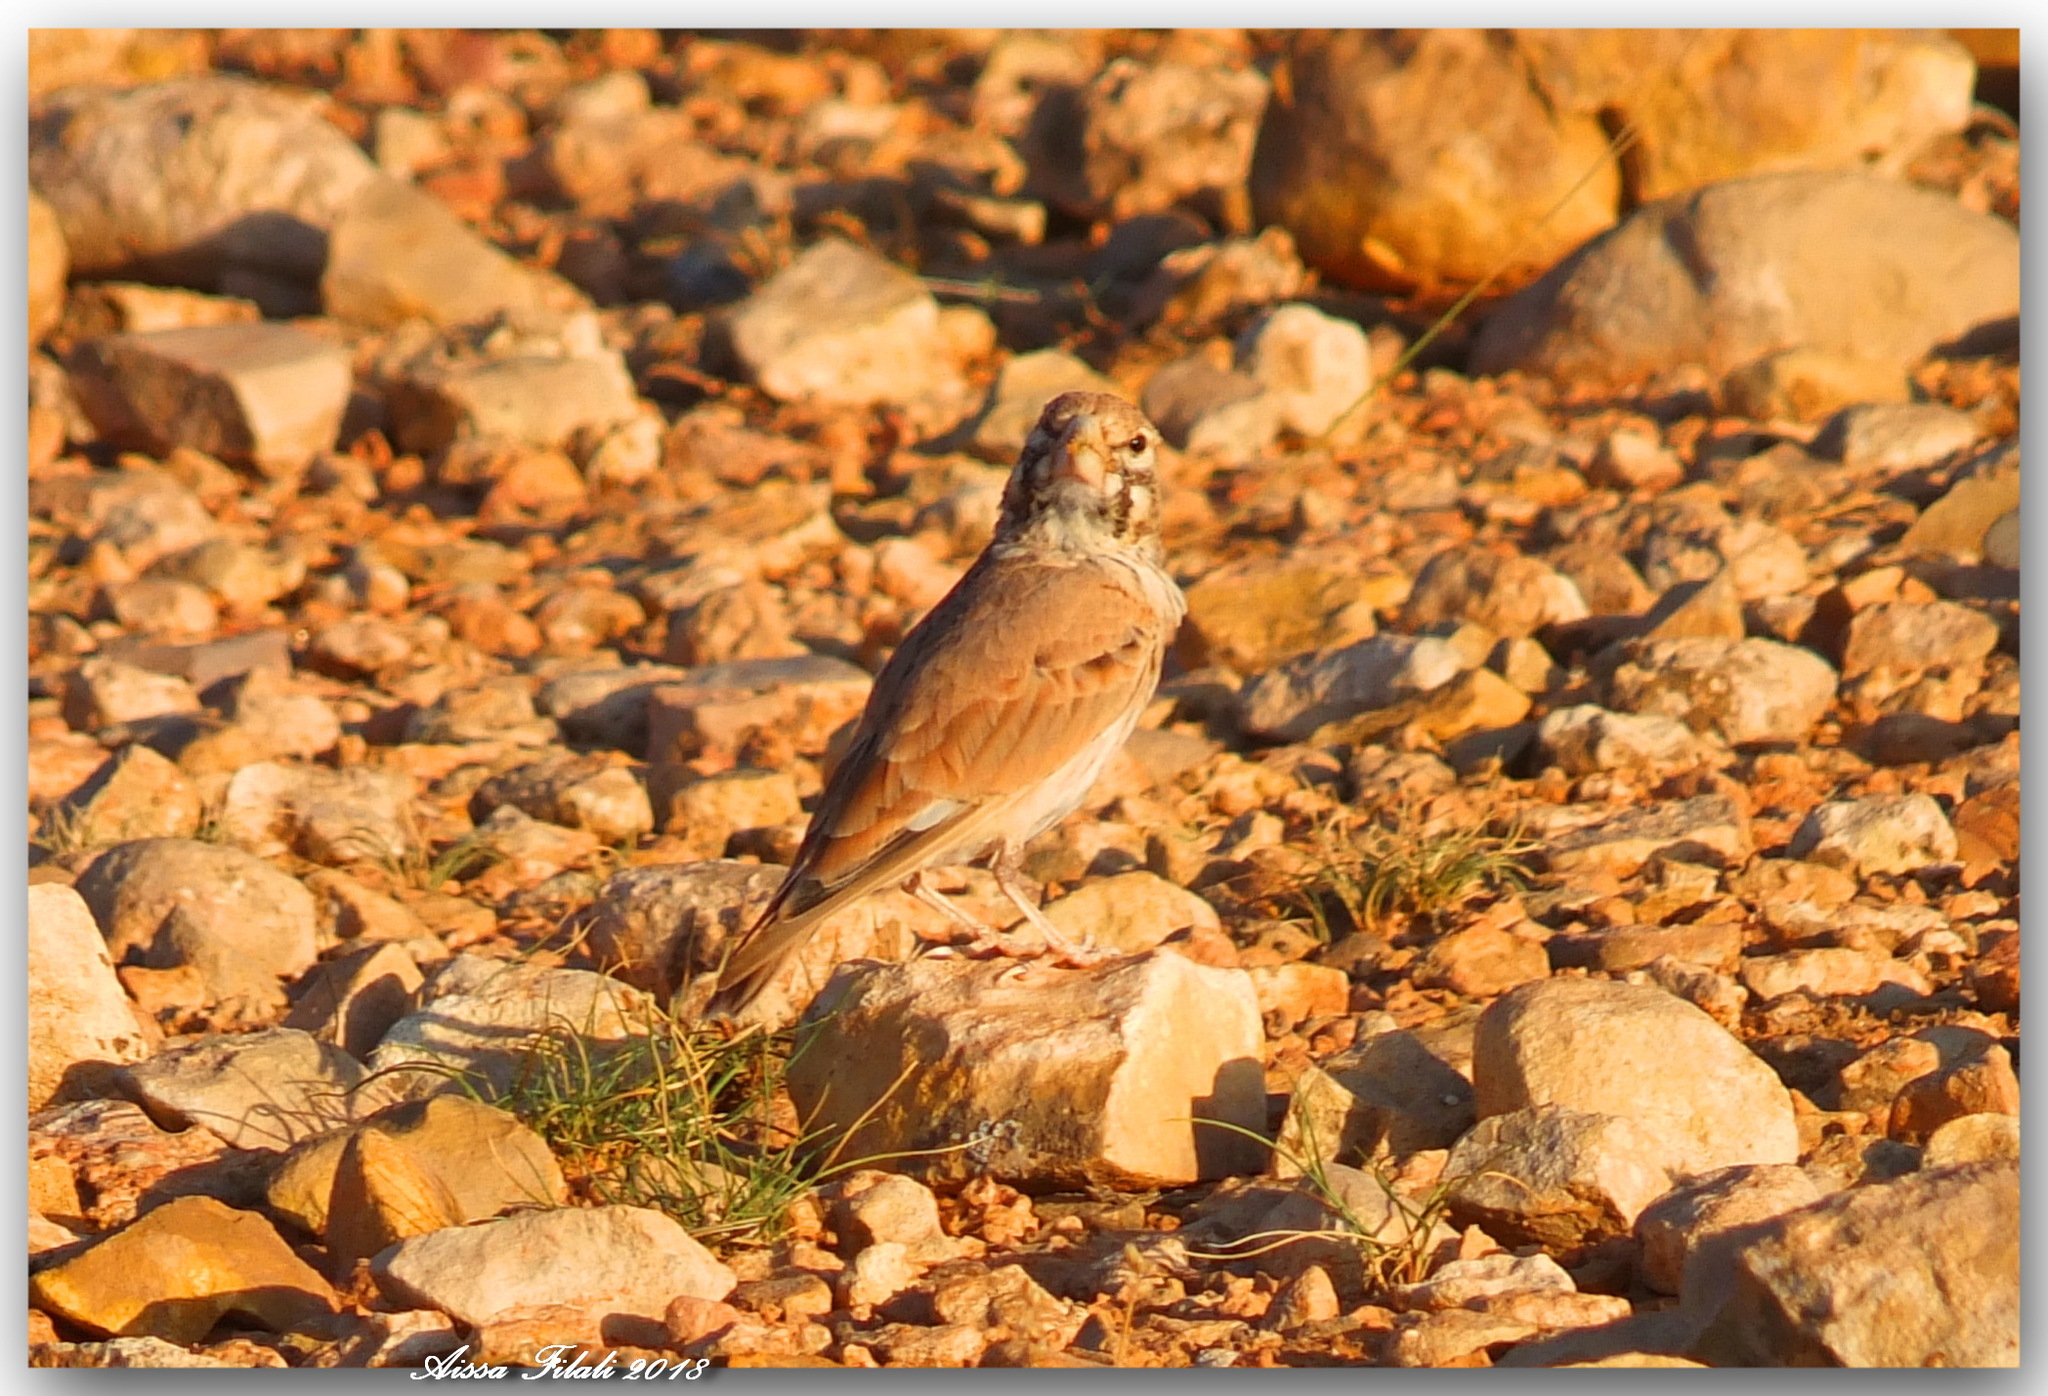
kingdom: Animalia
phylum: Chordata
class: Aves
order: Passeriformes
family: Alaudidae
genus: Ramphocoris
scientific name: Ramphocoris clotbey
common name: Thick-billed lark
